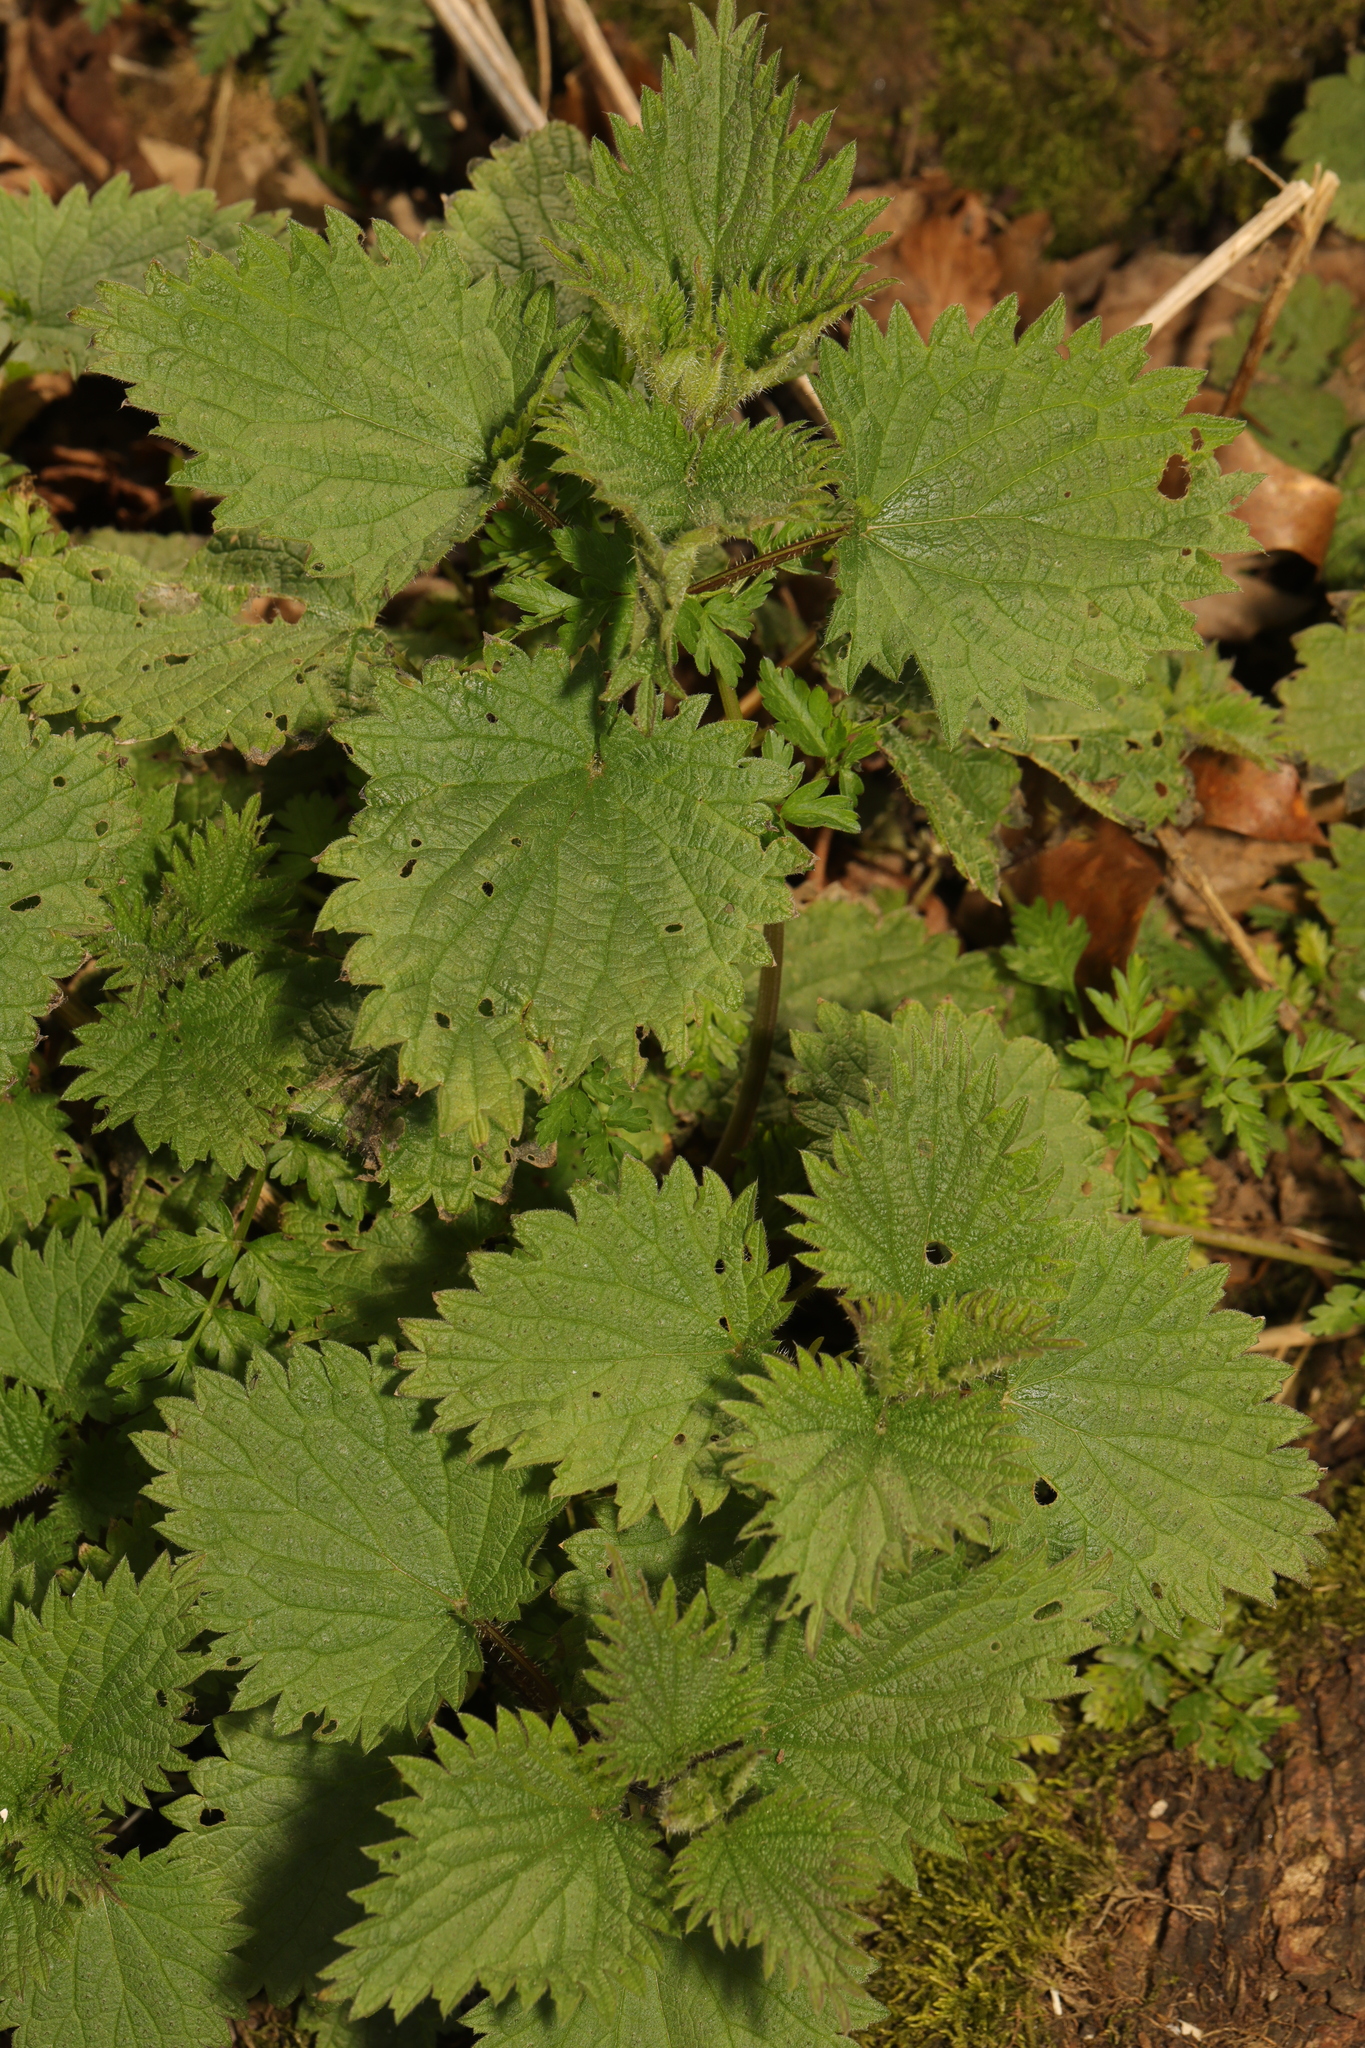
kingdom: Plantae
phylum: Tracheophyta
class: Magnoliopsida
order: Rosales
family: Urticaceae
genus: Urtica
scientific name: Urtica dioica
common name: Common nettle
